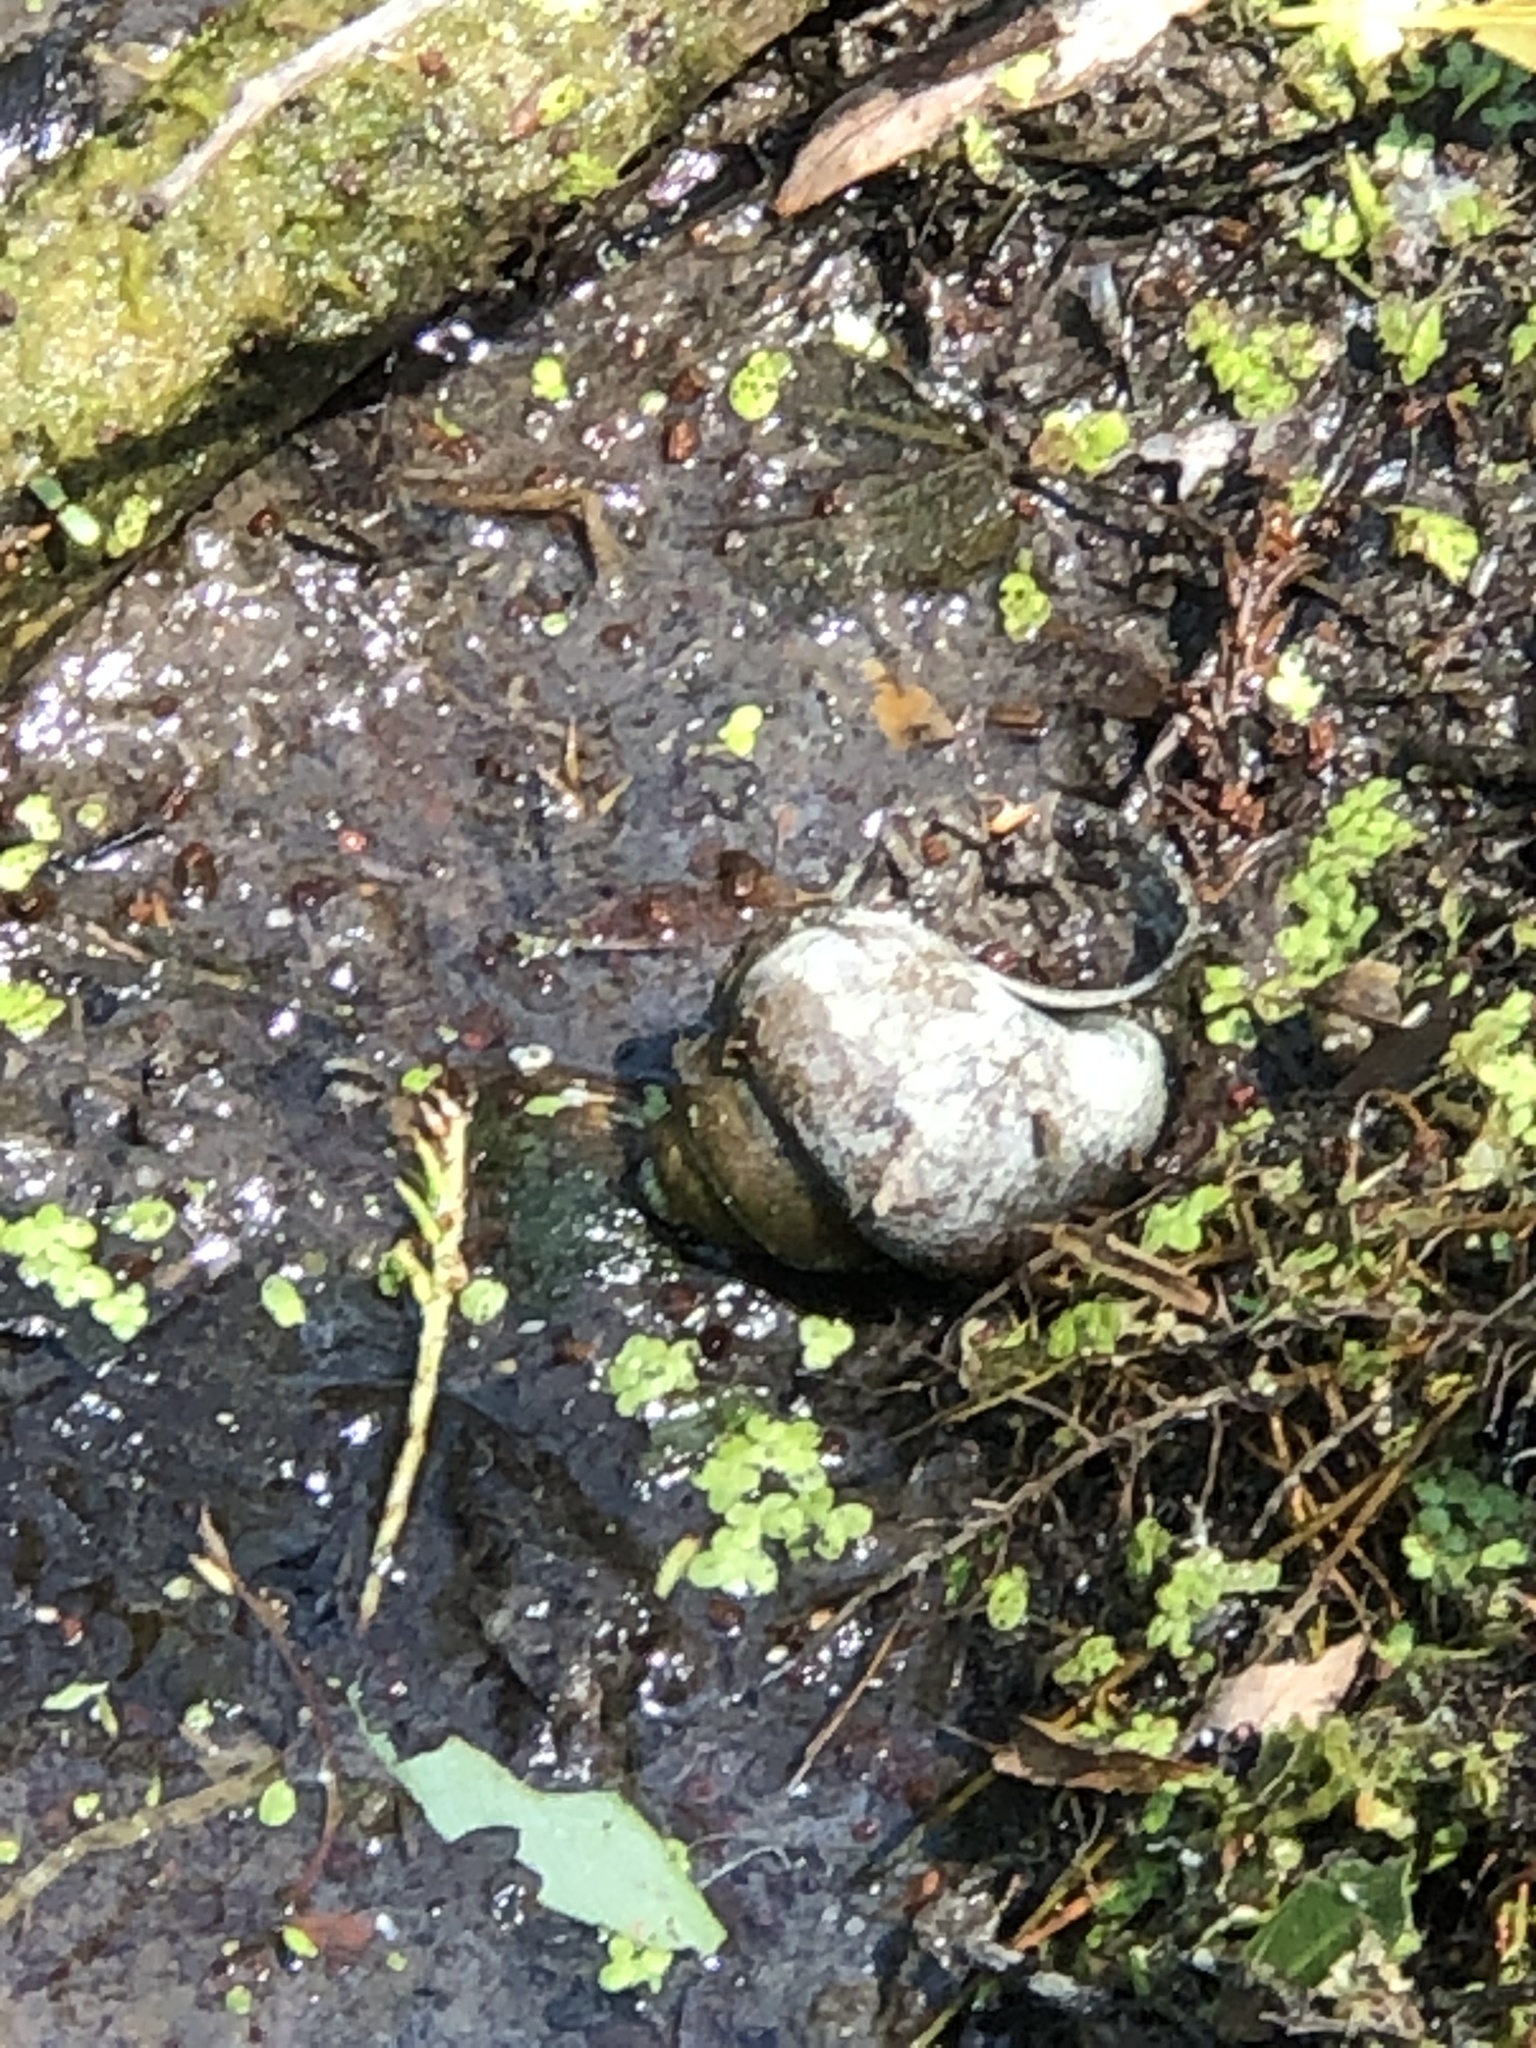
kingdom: Animalia
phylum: Mollusca
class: Gastropoda
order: Architaenioglossa
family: Viviparidae
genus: Cipangopaludina
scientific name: Cipangopaludina chinensis
